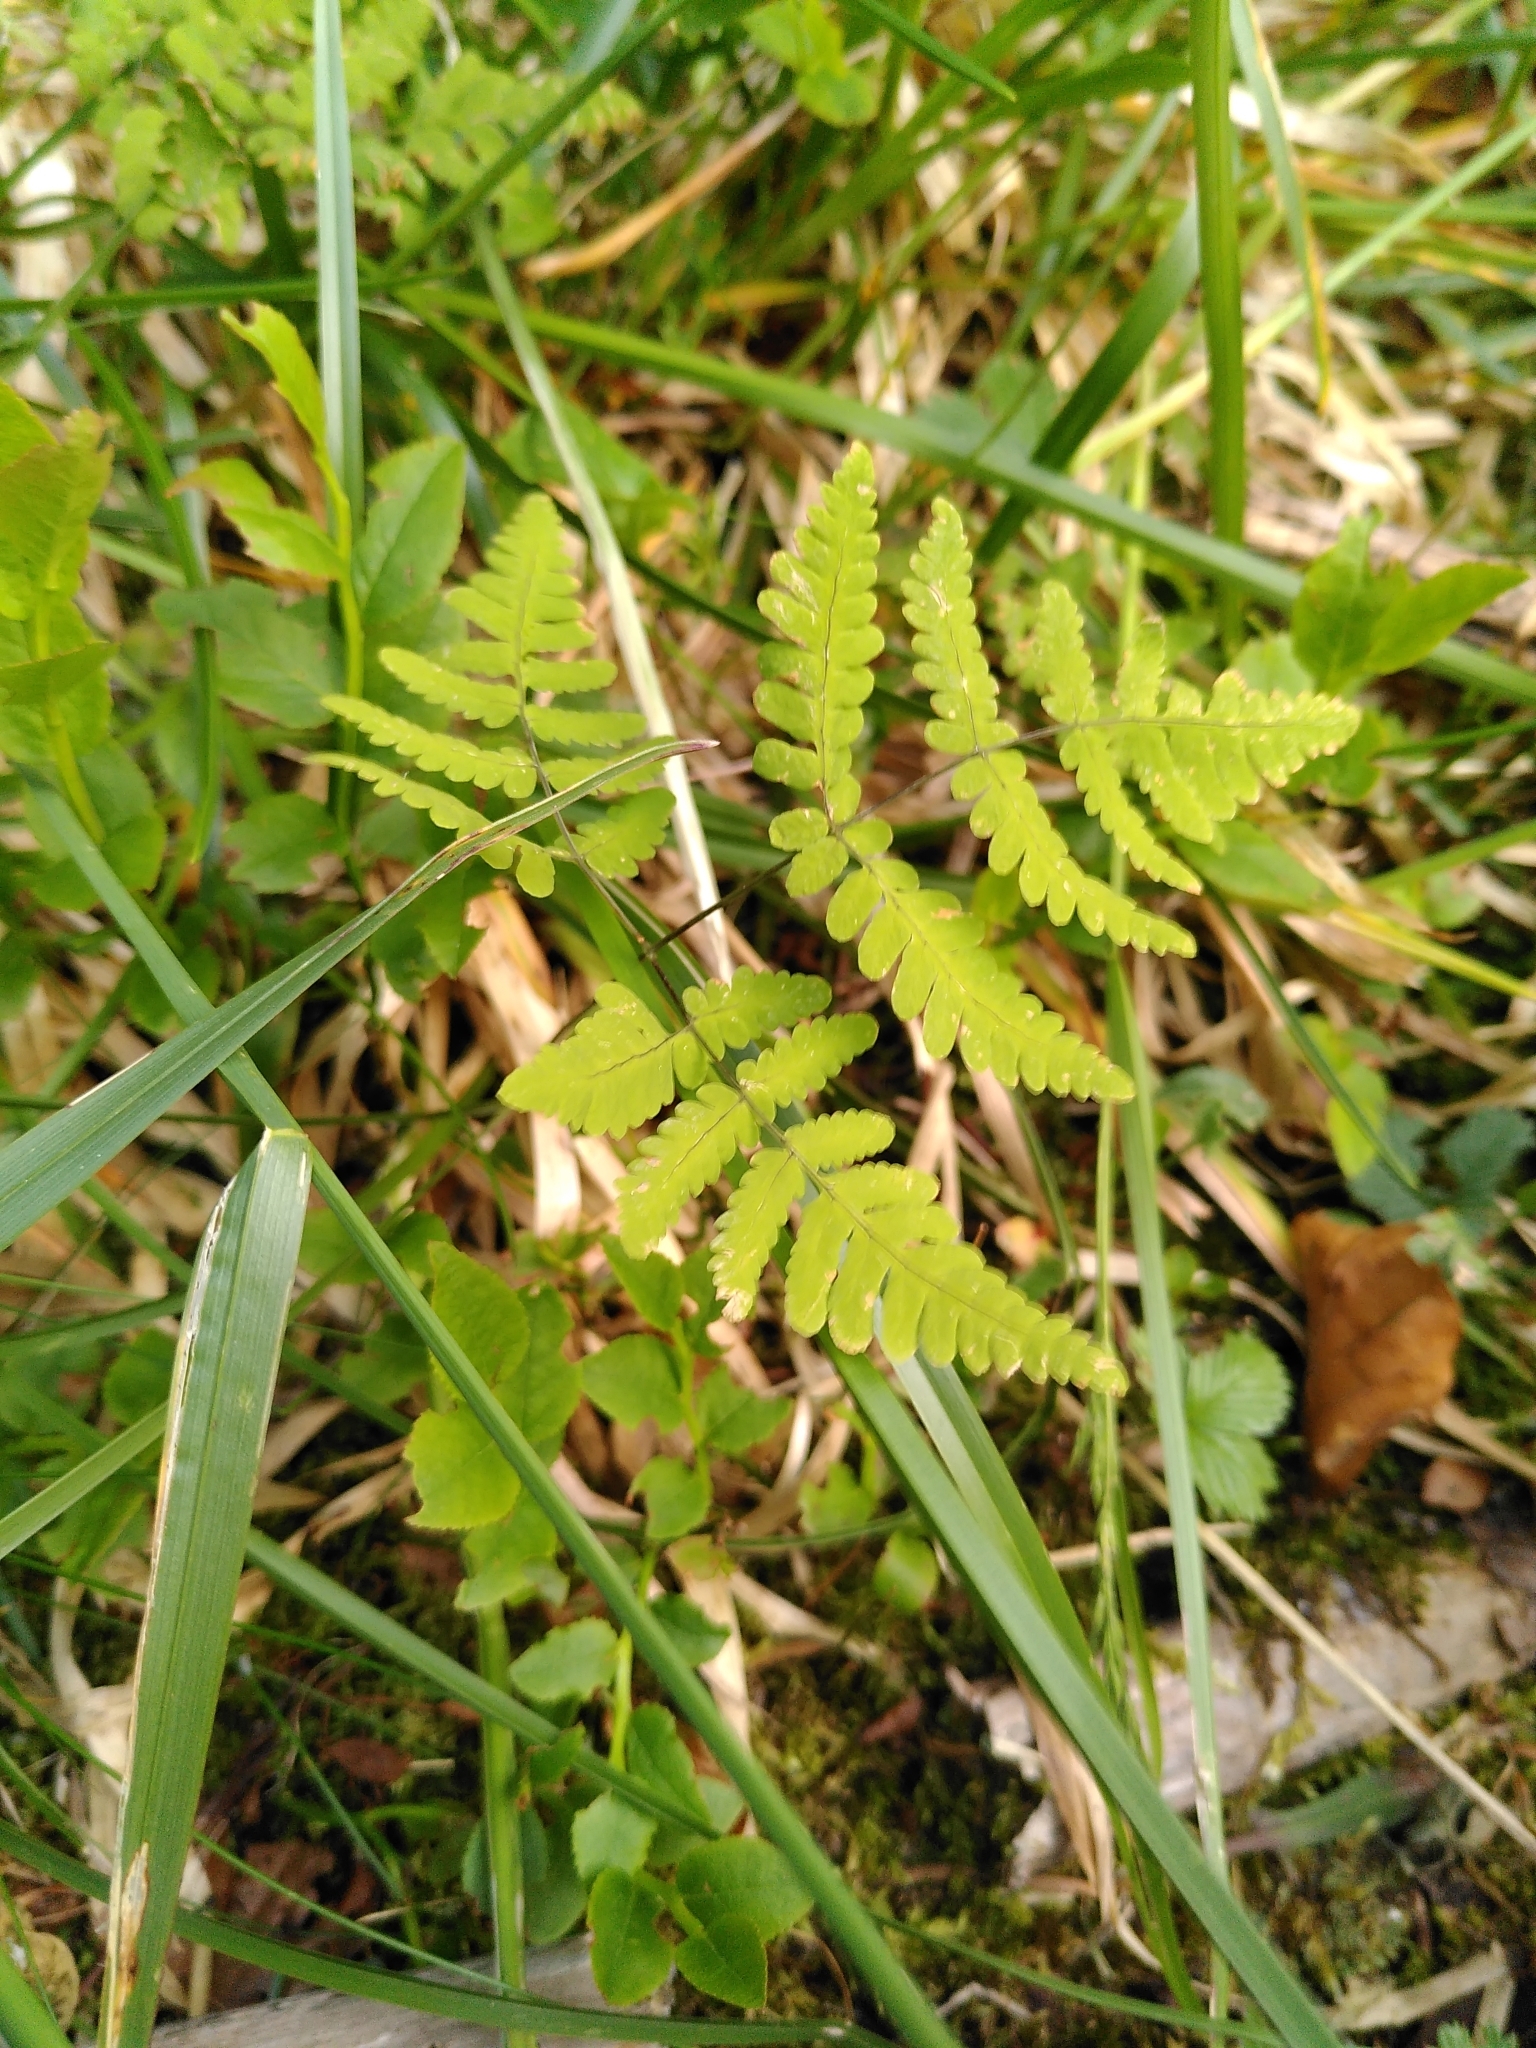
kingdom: Plantae
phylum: Tracheophyta
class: Polypodiopsida
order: Polypodiales
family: Cystopteridaceae
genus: Gymnocarpium
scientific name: Gymnocarpium dryopteris
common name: Oak fern
